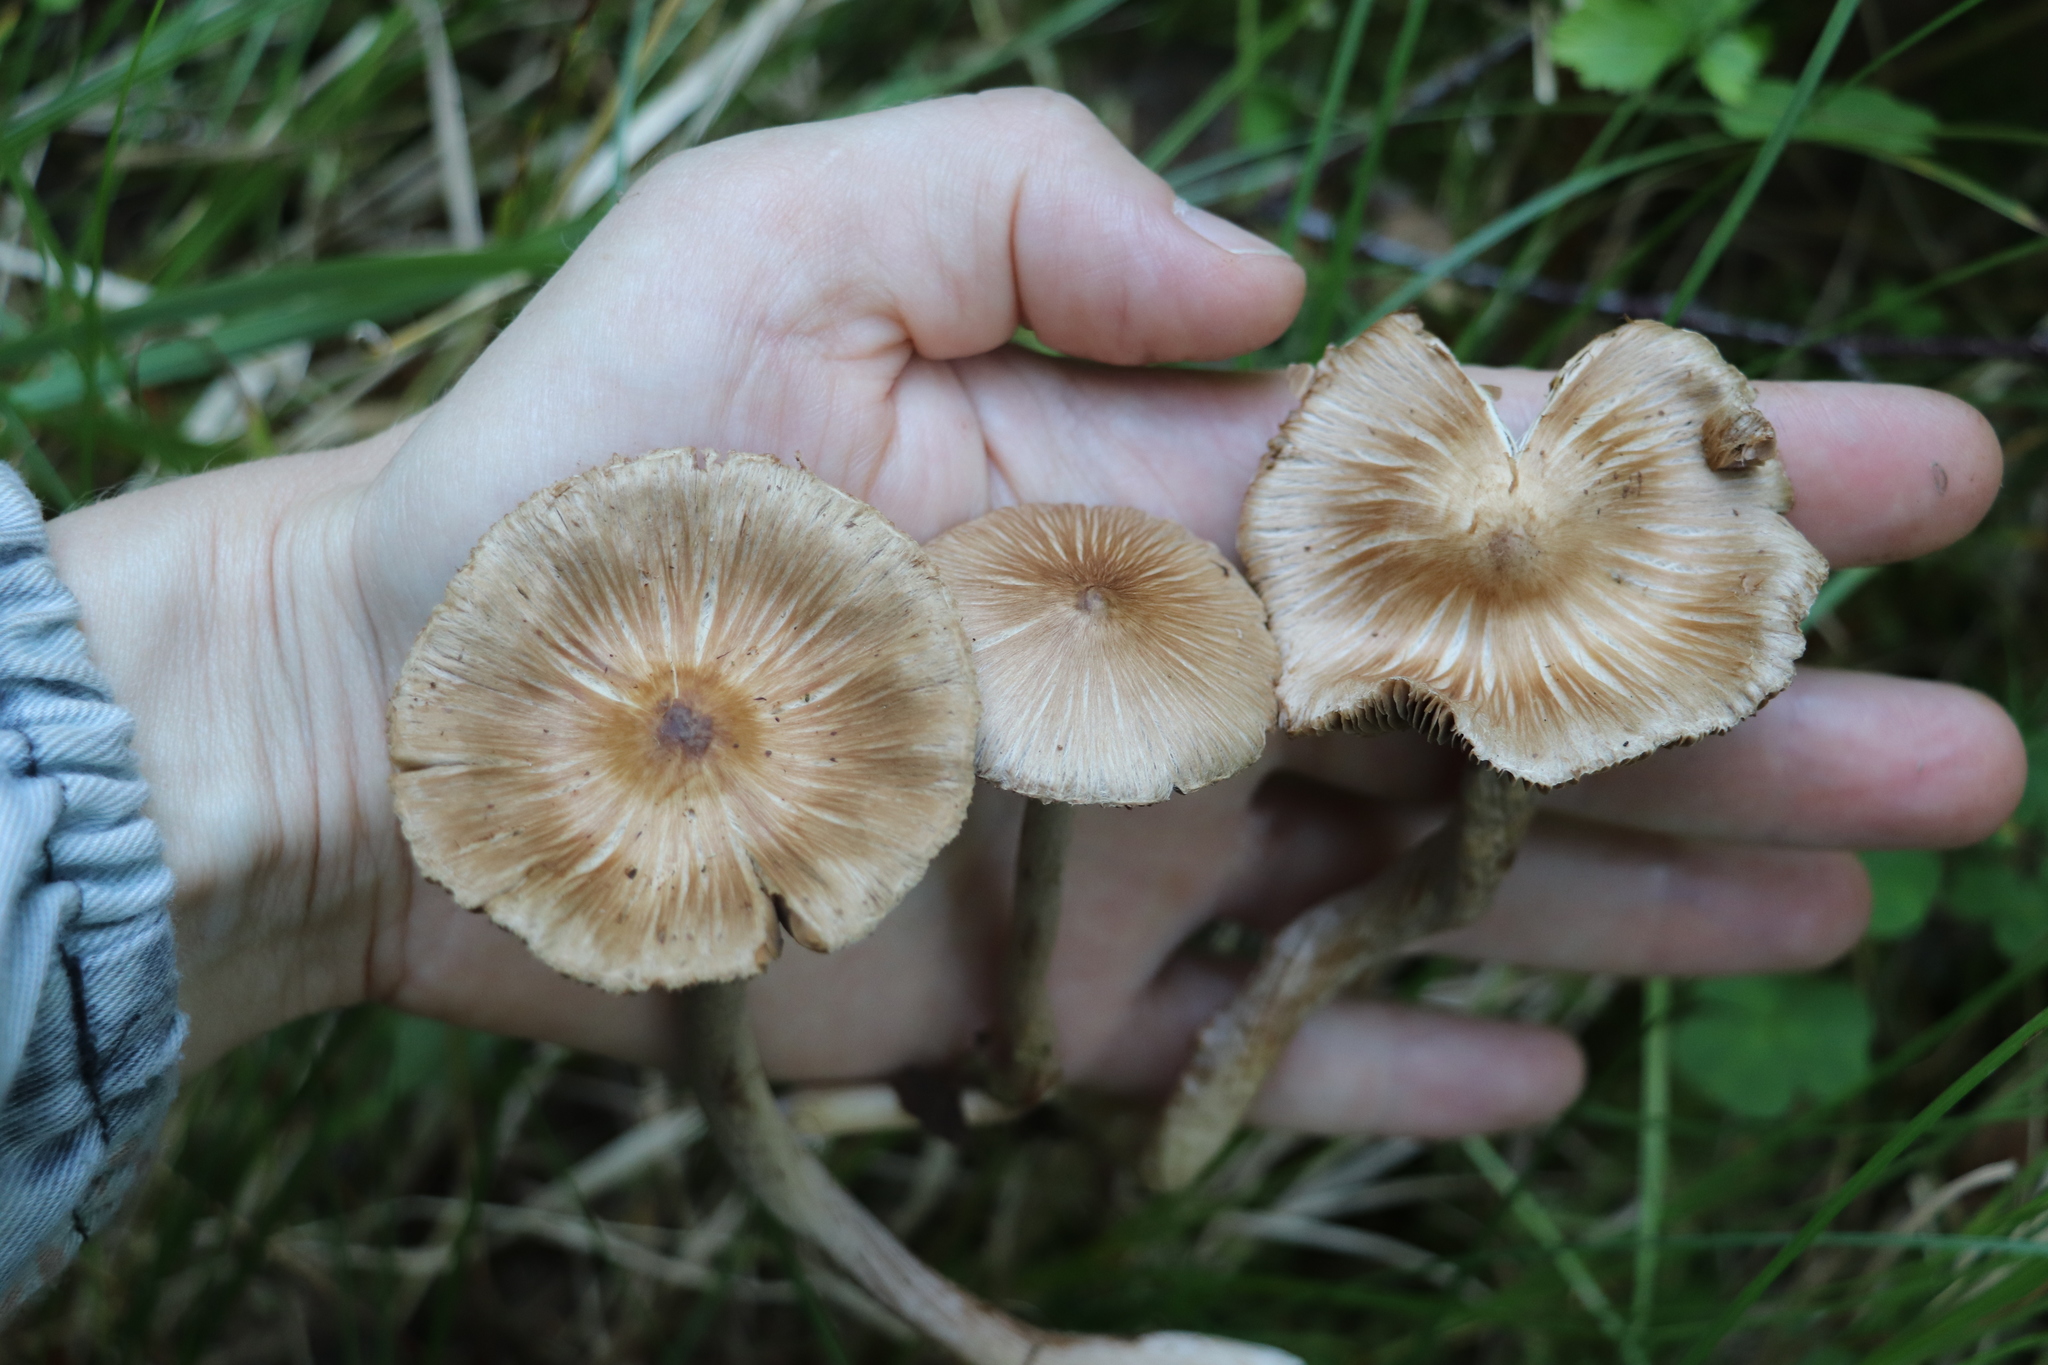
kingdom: Fungi
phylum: Basidiomycota
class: Agaricomycetes
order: Agaricales
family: Inocybaceae
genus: Inocybe
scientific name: Inocybe acuta
